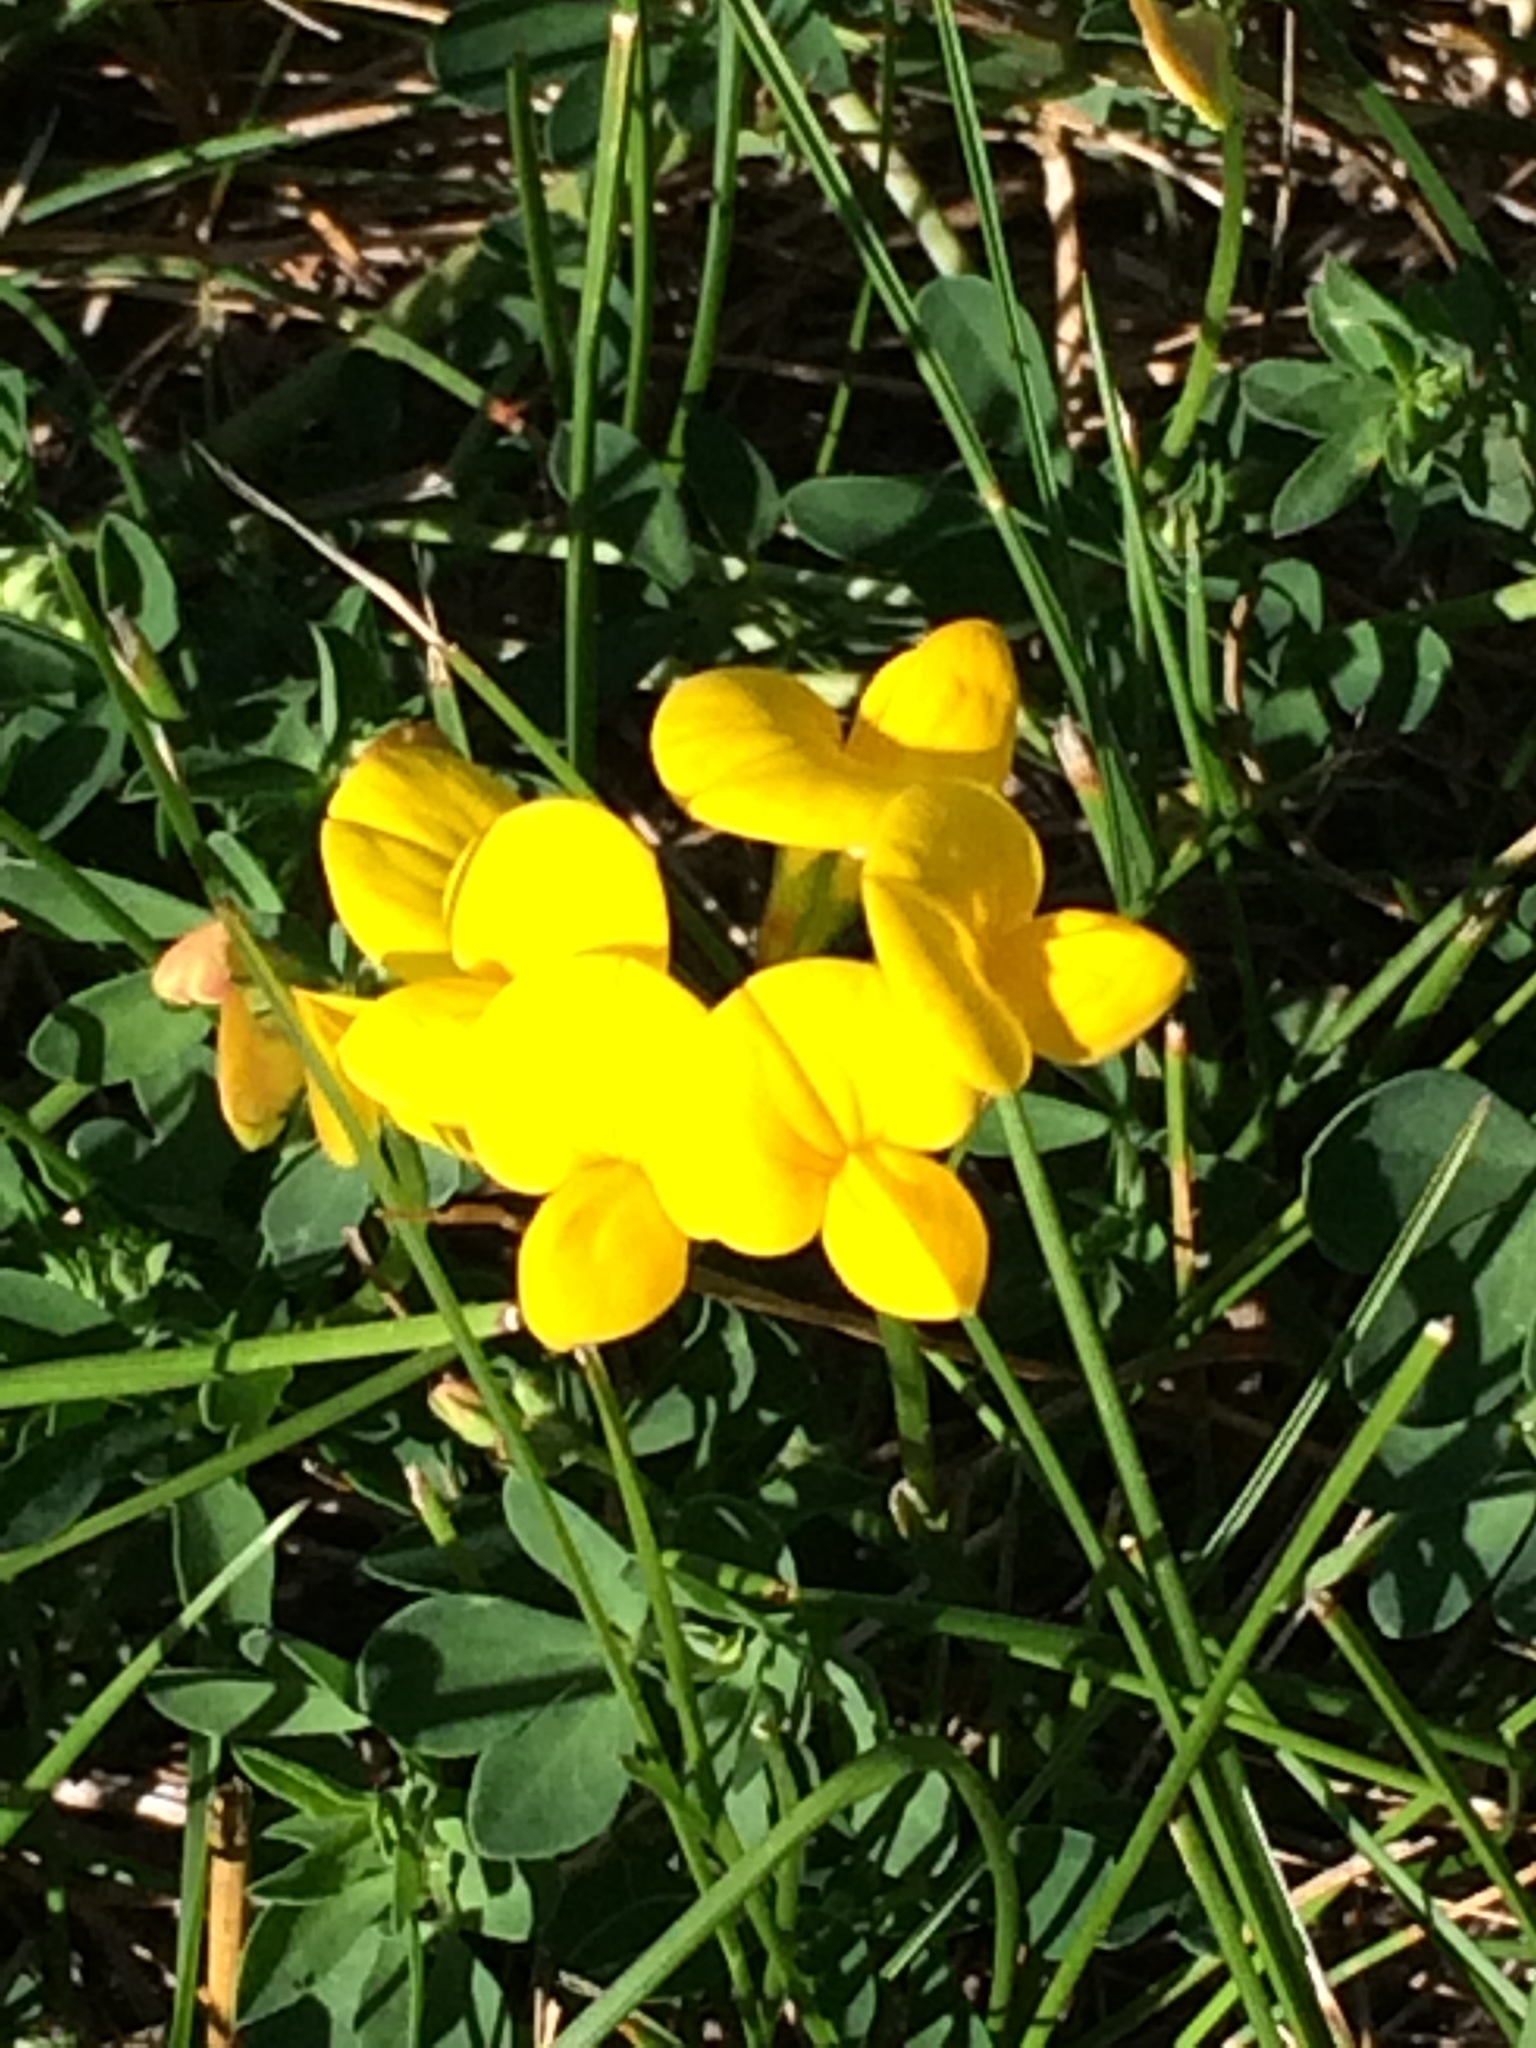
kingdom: Plantae
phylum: Tracheophyta
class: Magnoliopsida
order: Fabales
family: Fabaceae
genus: Lotus
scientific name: Lotus corniculatus
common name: Common bird's-foot-trefoil
